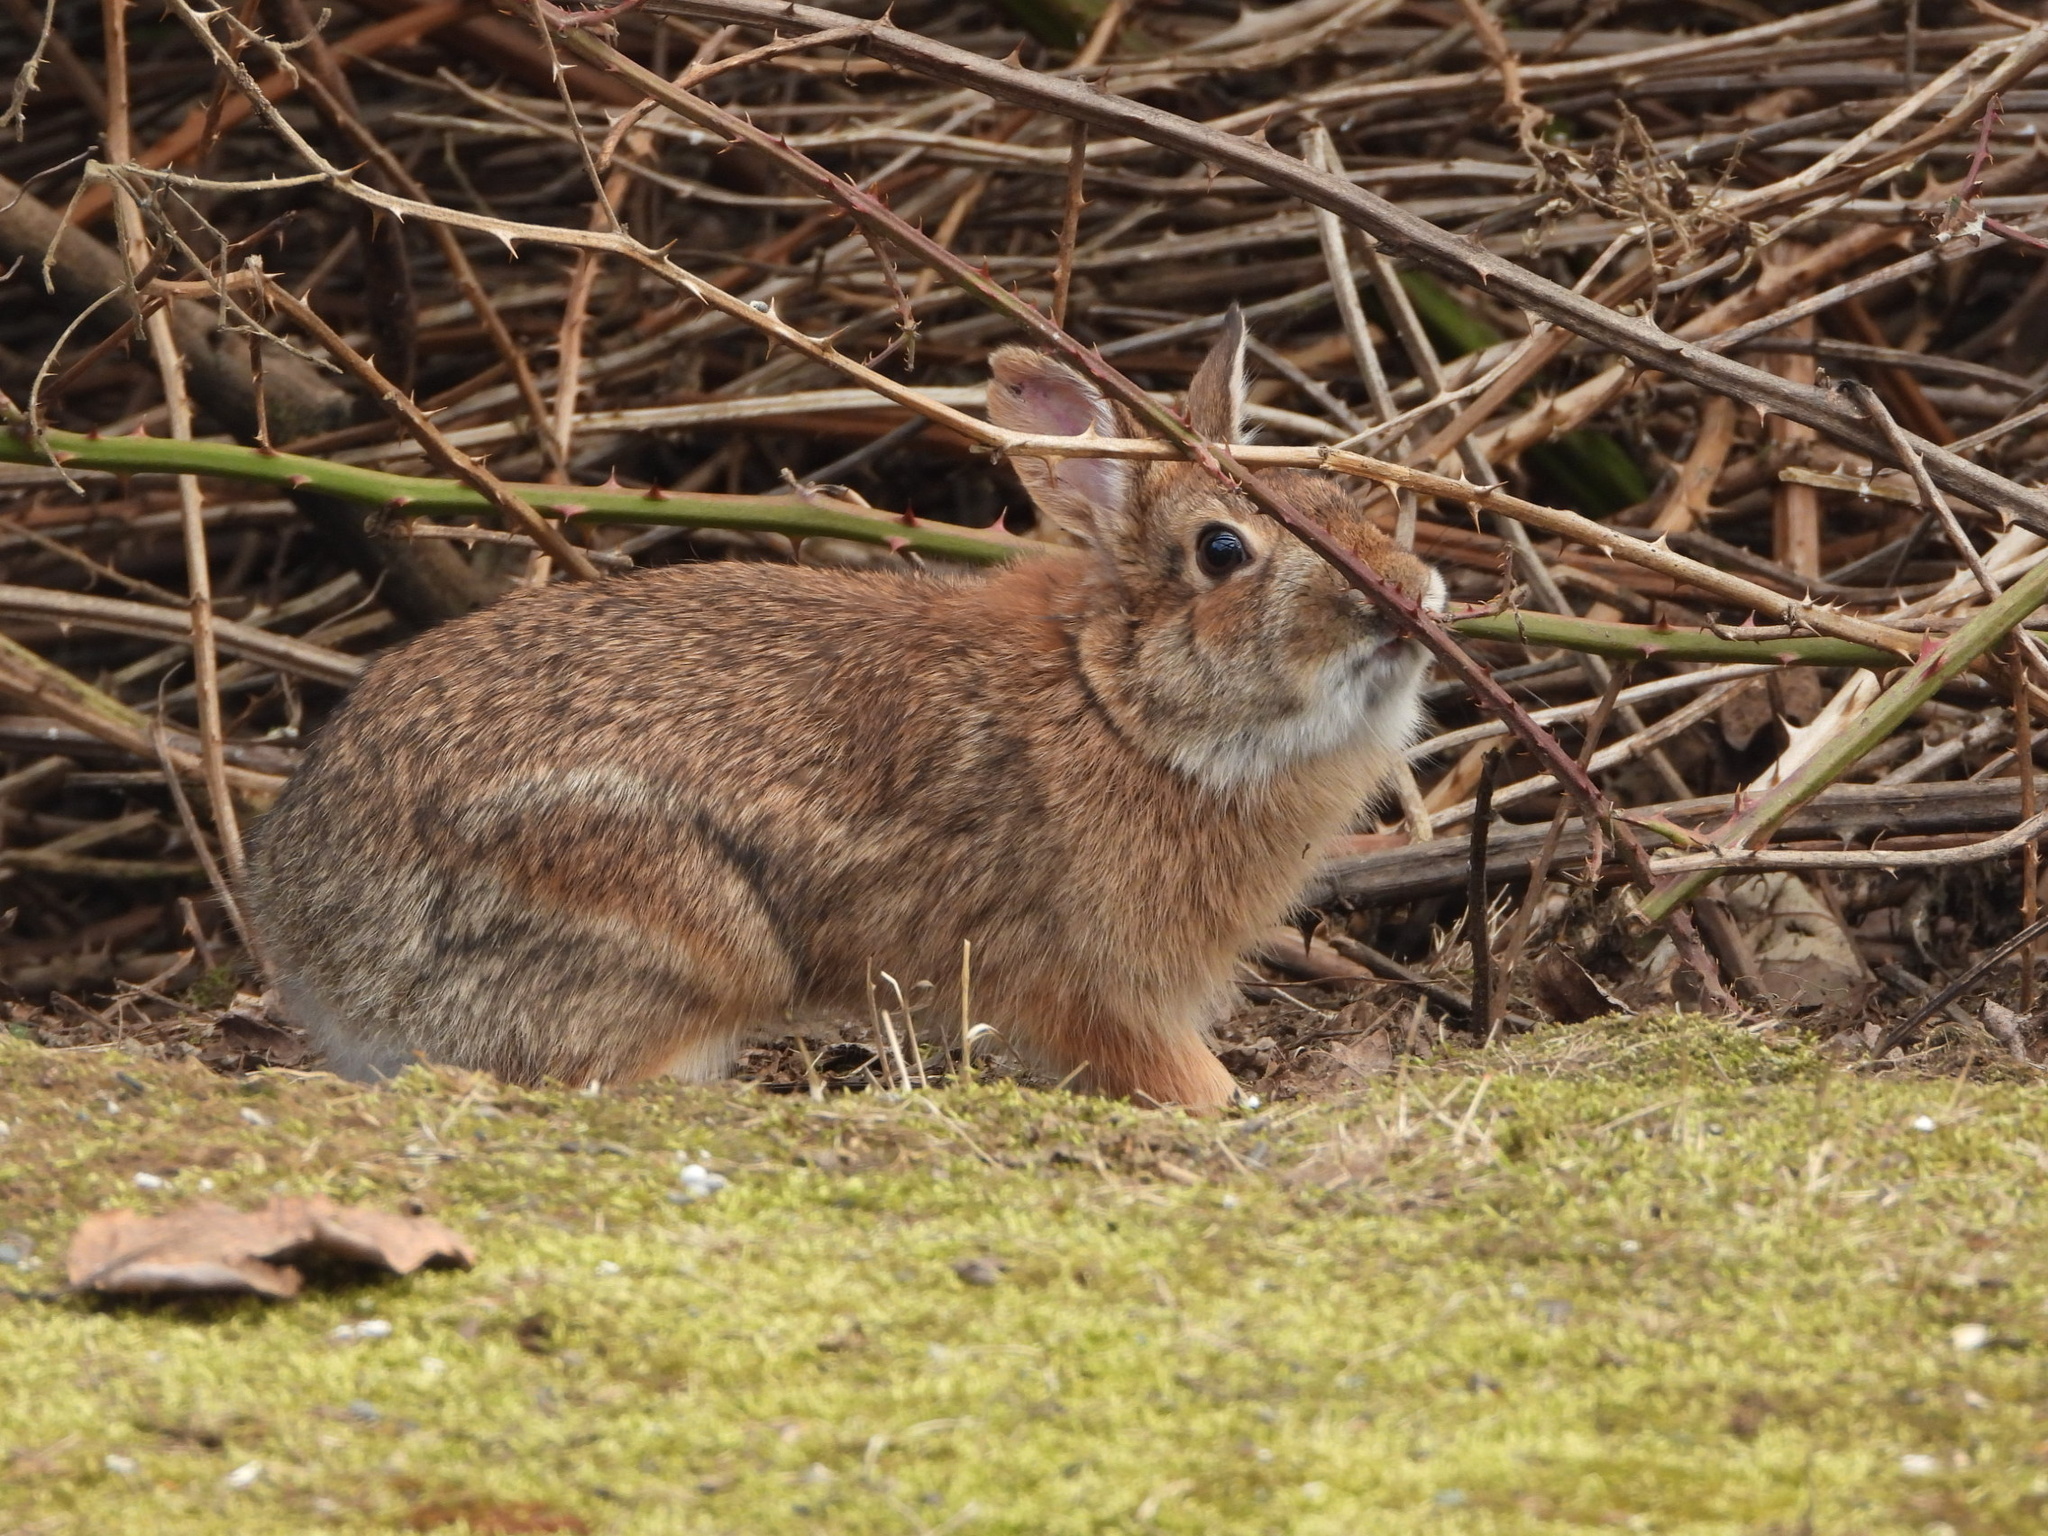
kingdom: Animalia
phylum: Chordata
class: Mammalia
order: Lagomorpha
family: Leporidae
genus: Sylvilagus
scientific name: Sylvilagus floridanus
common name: Eastern cottontail
